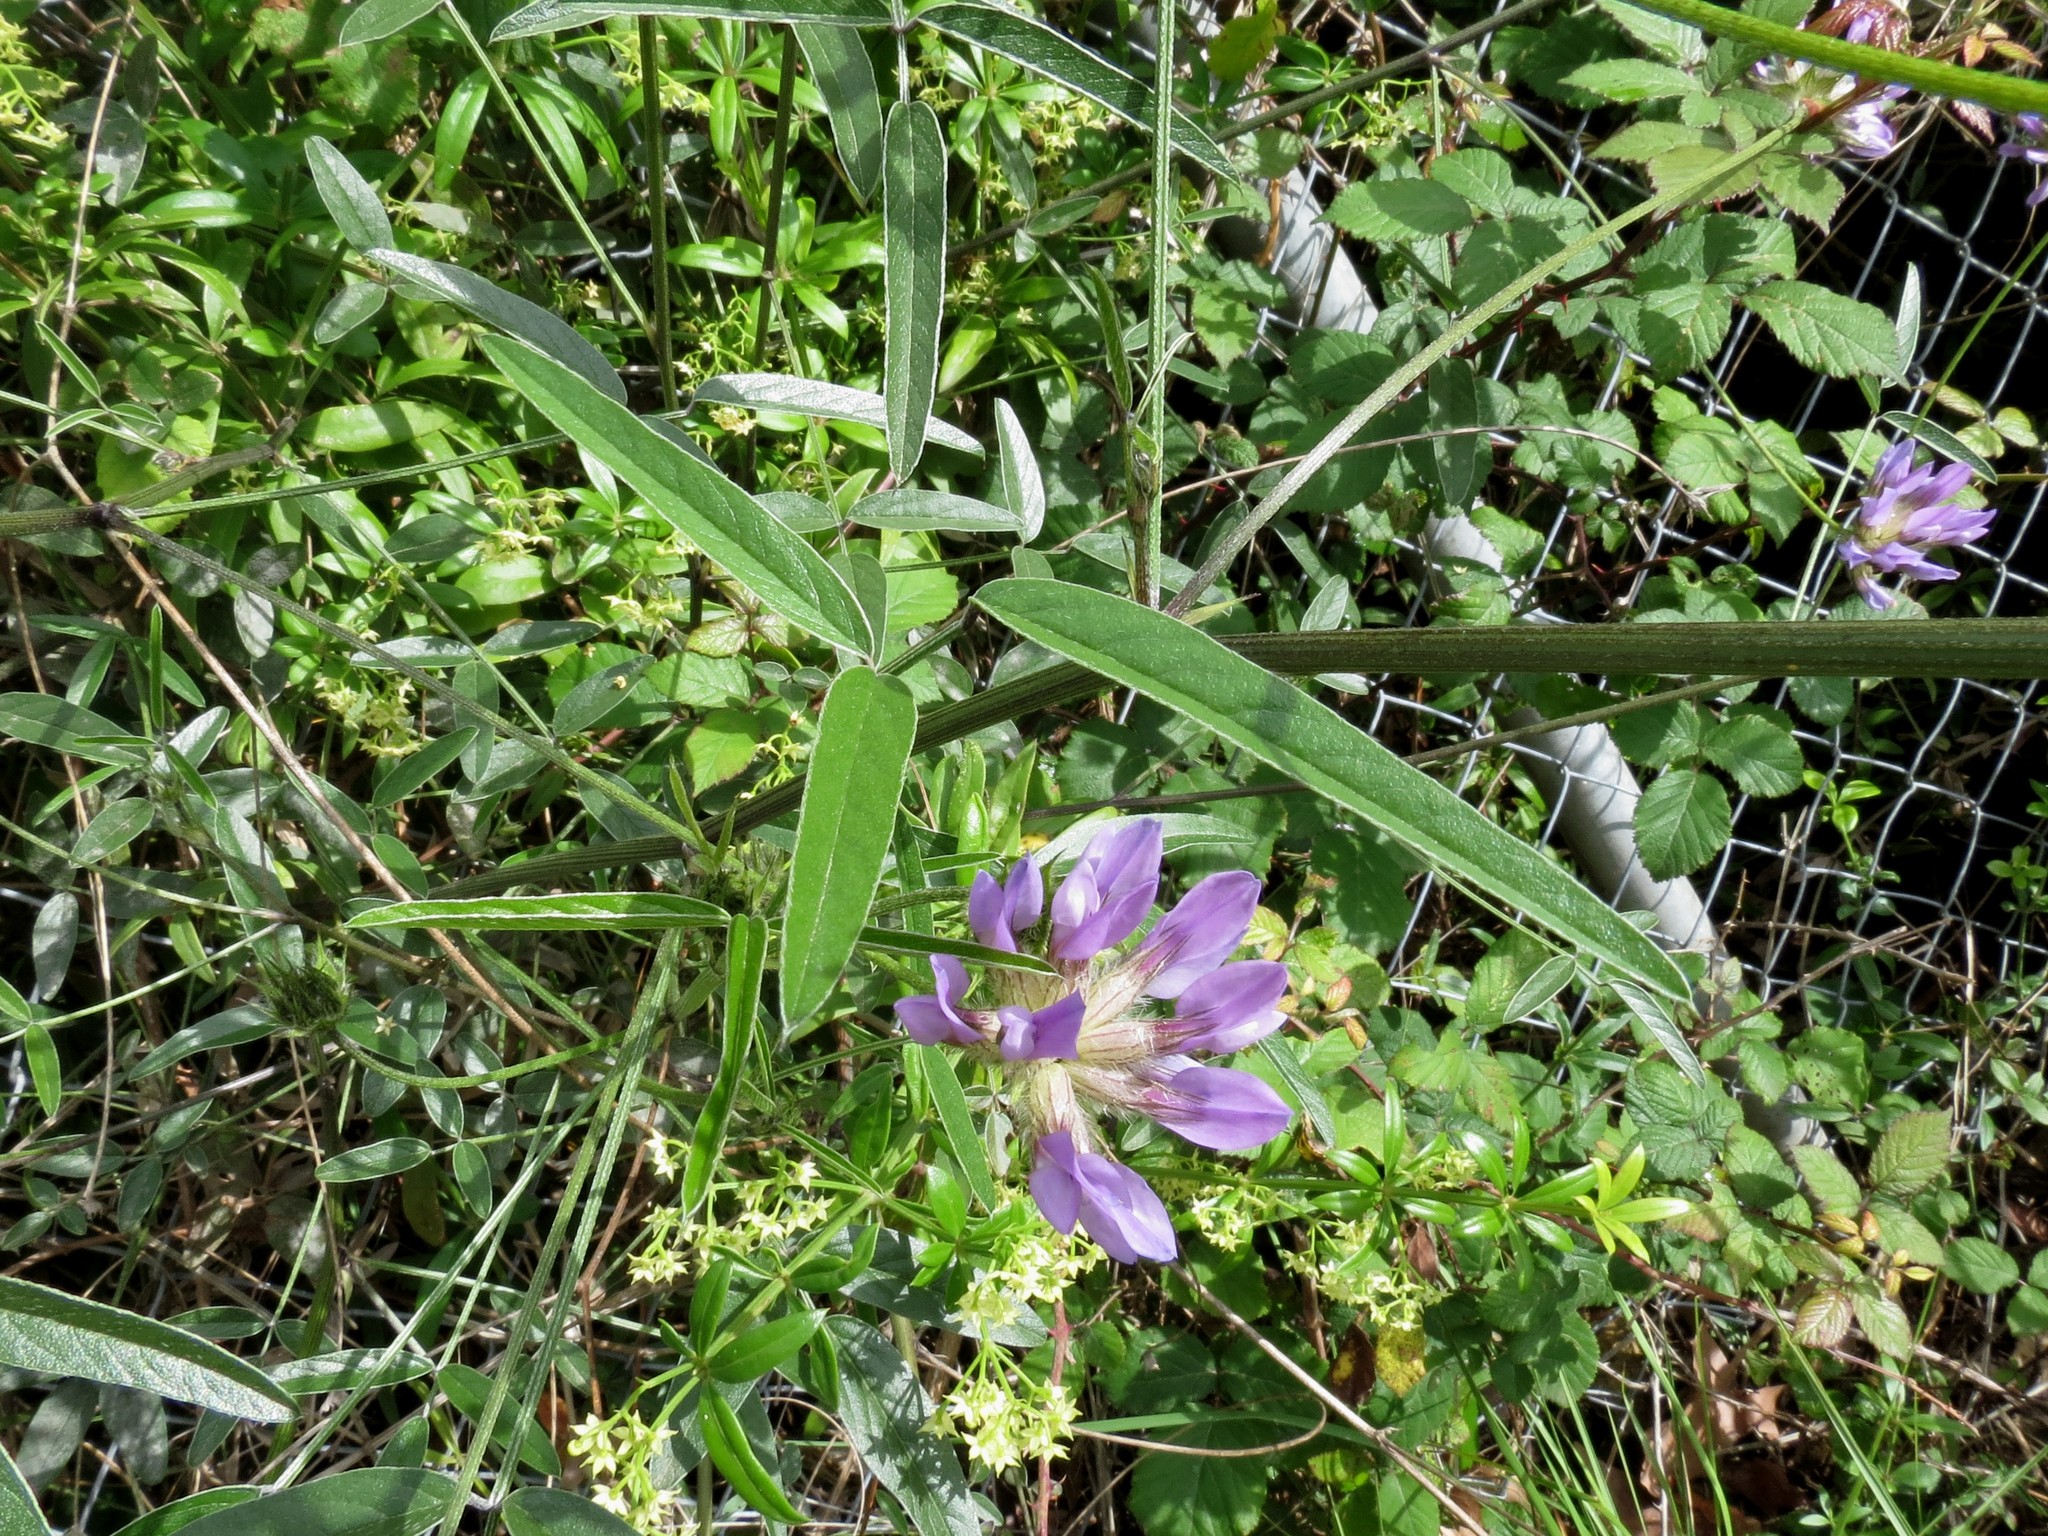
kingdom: Plantae
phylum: Tracheophyta
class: Magnoliopsida
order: Fabales
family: Fabaceae
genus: Bituminaria
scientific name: Bituminaria bituminosa
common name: Arabian pea
